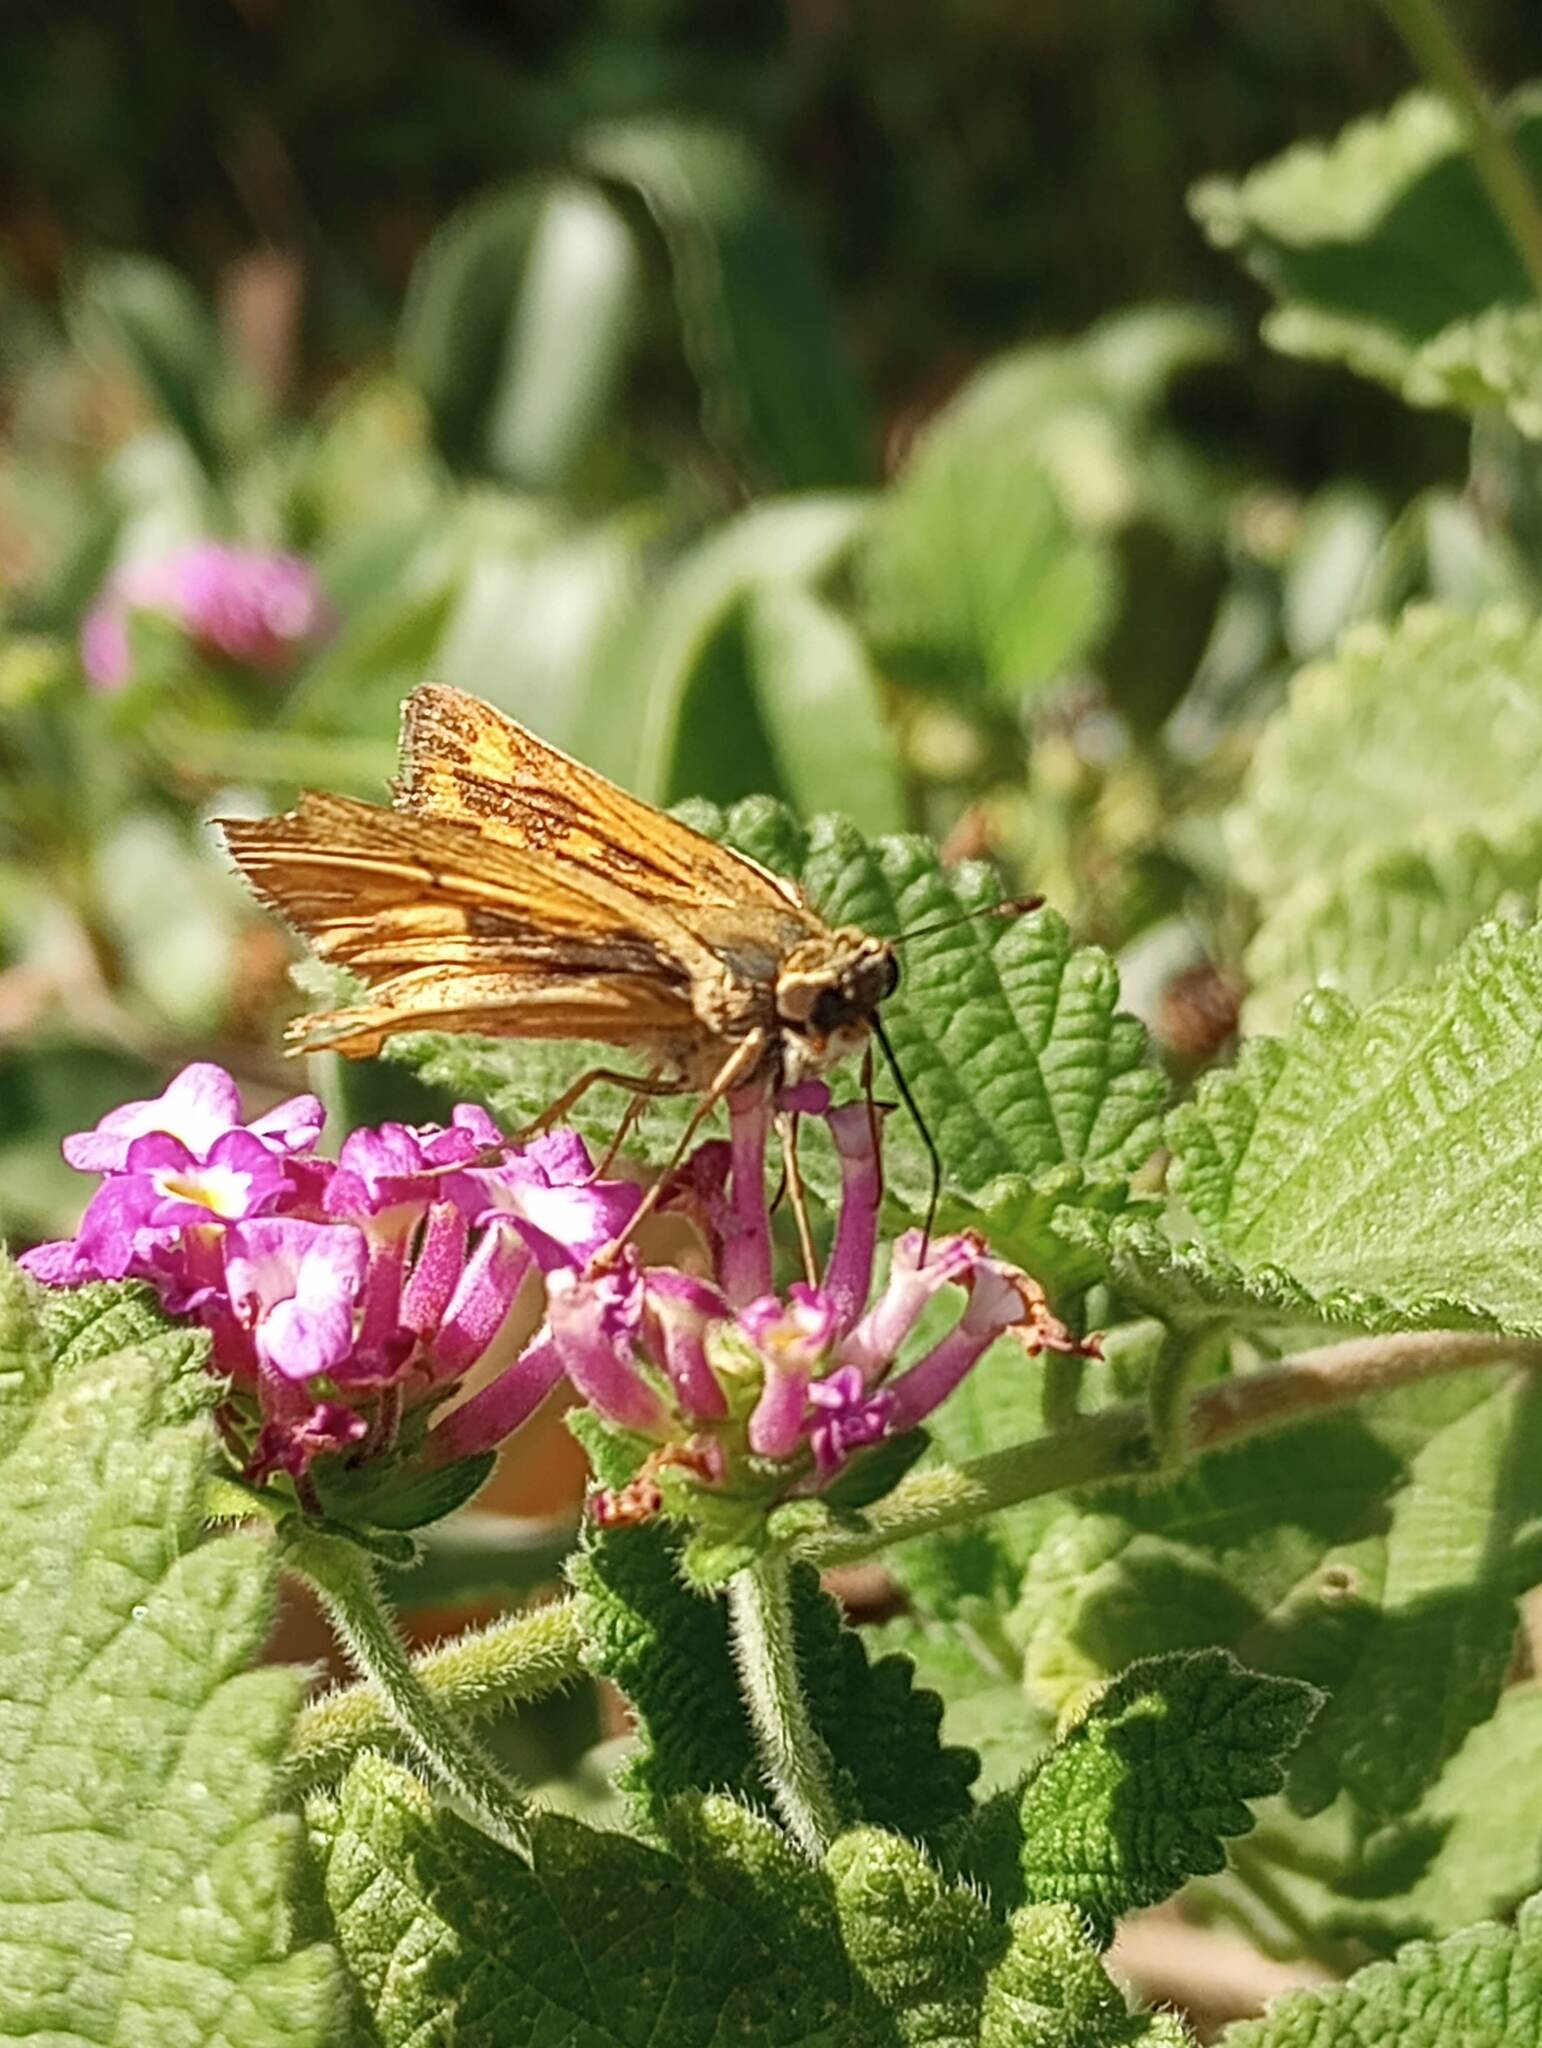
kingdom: Animalia
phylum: Arthropoda
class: Insecta
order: Lepidoptera
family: Hesperiidae
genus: Hylephila
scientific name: Hylephila phyleus
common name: Fiery skipper
